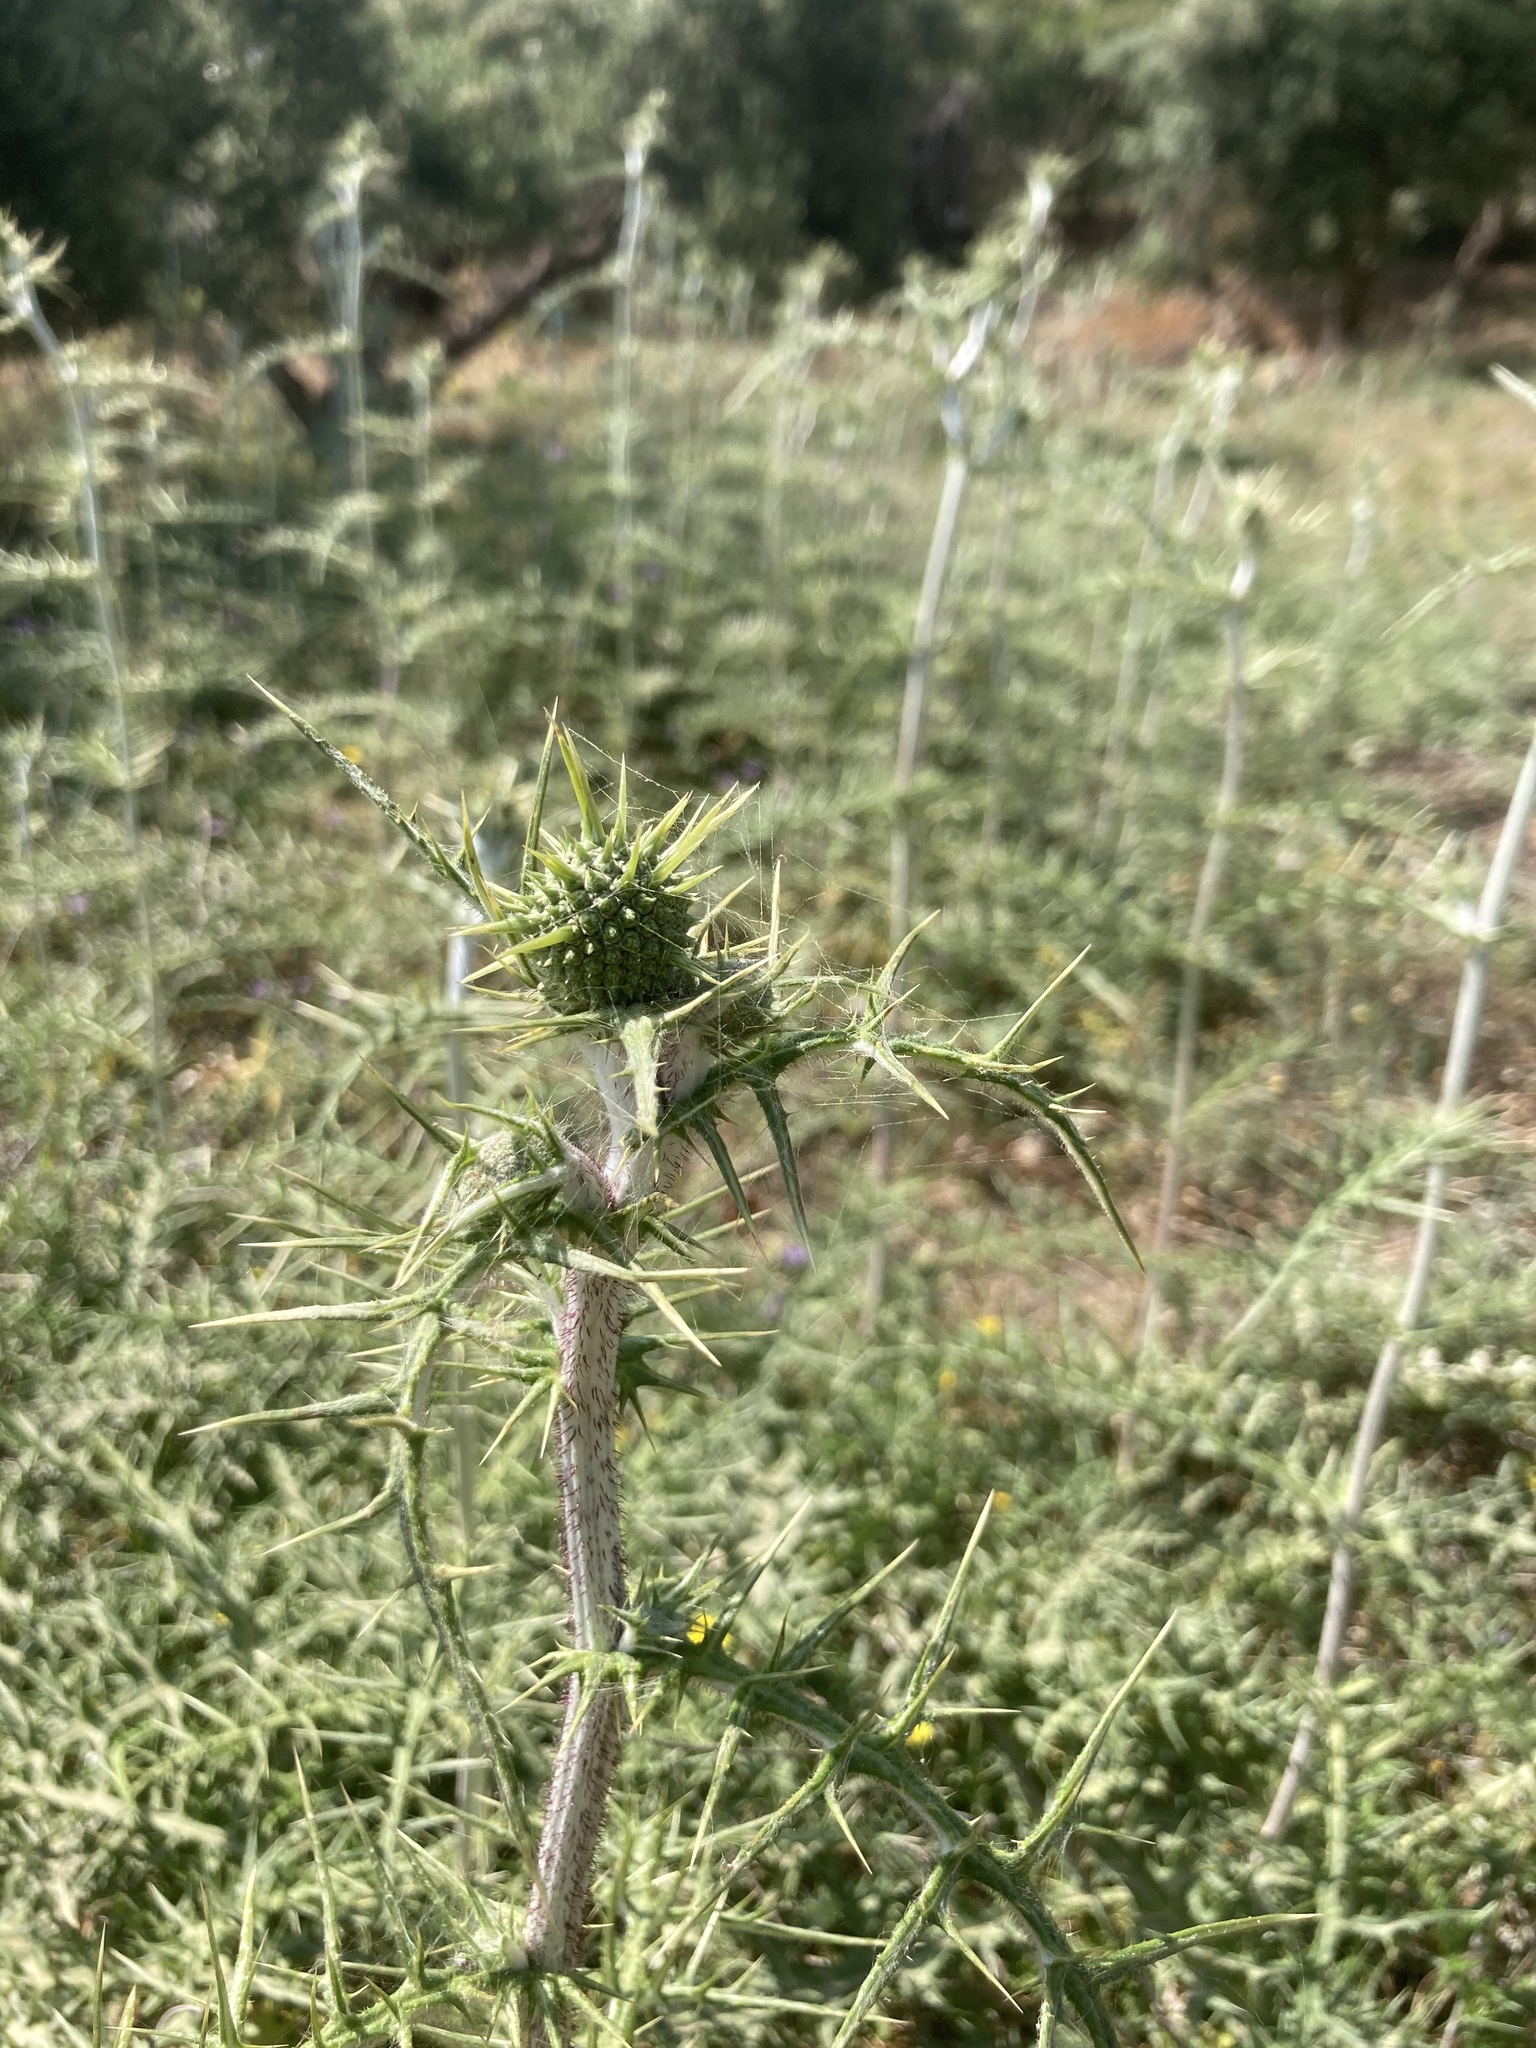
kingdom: Plantae
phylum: Tracheophyta
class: Magnoliopsida
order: Asterales
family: Asteraceae
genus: Echinops
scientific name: Echinops spinosissimus
